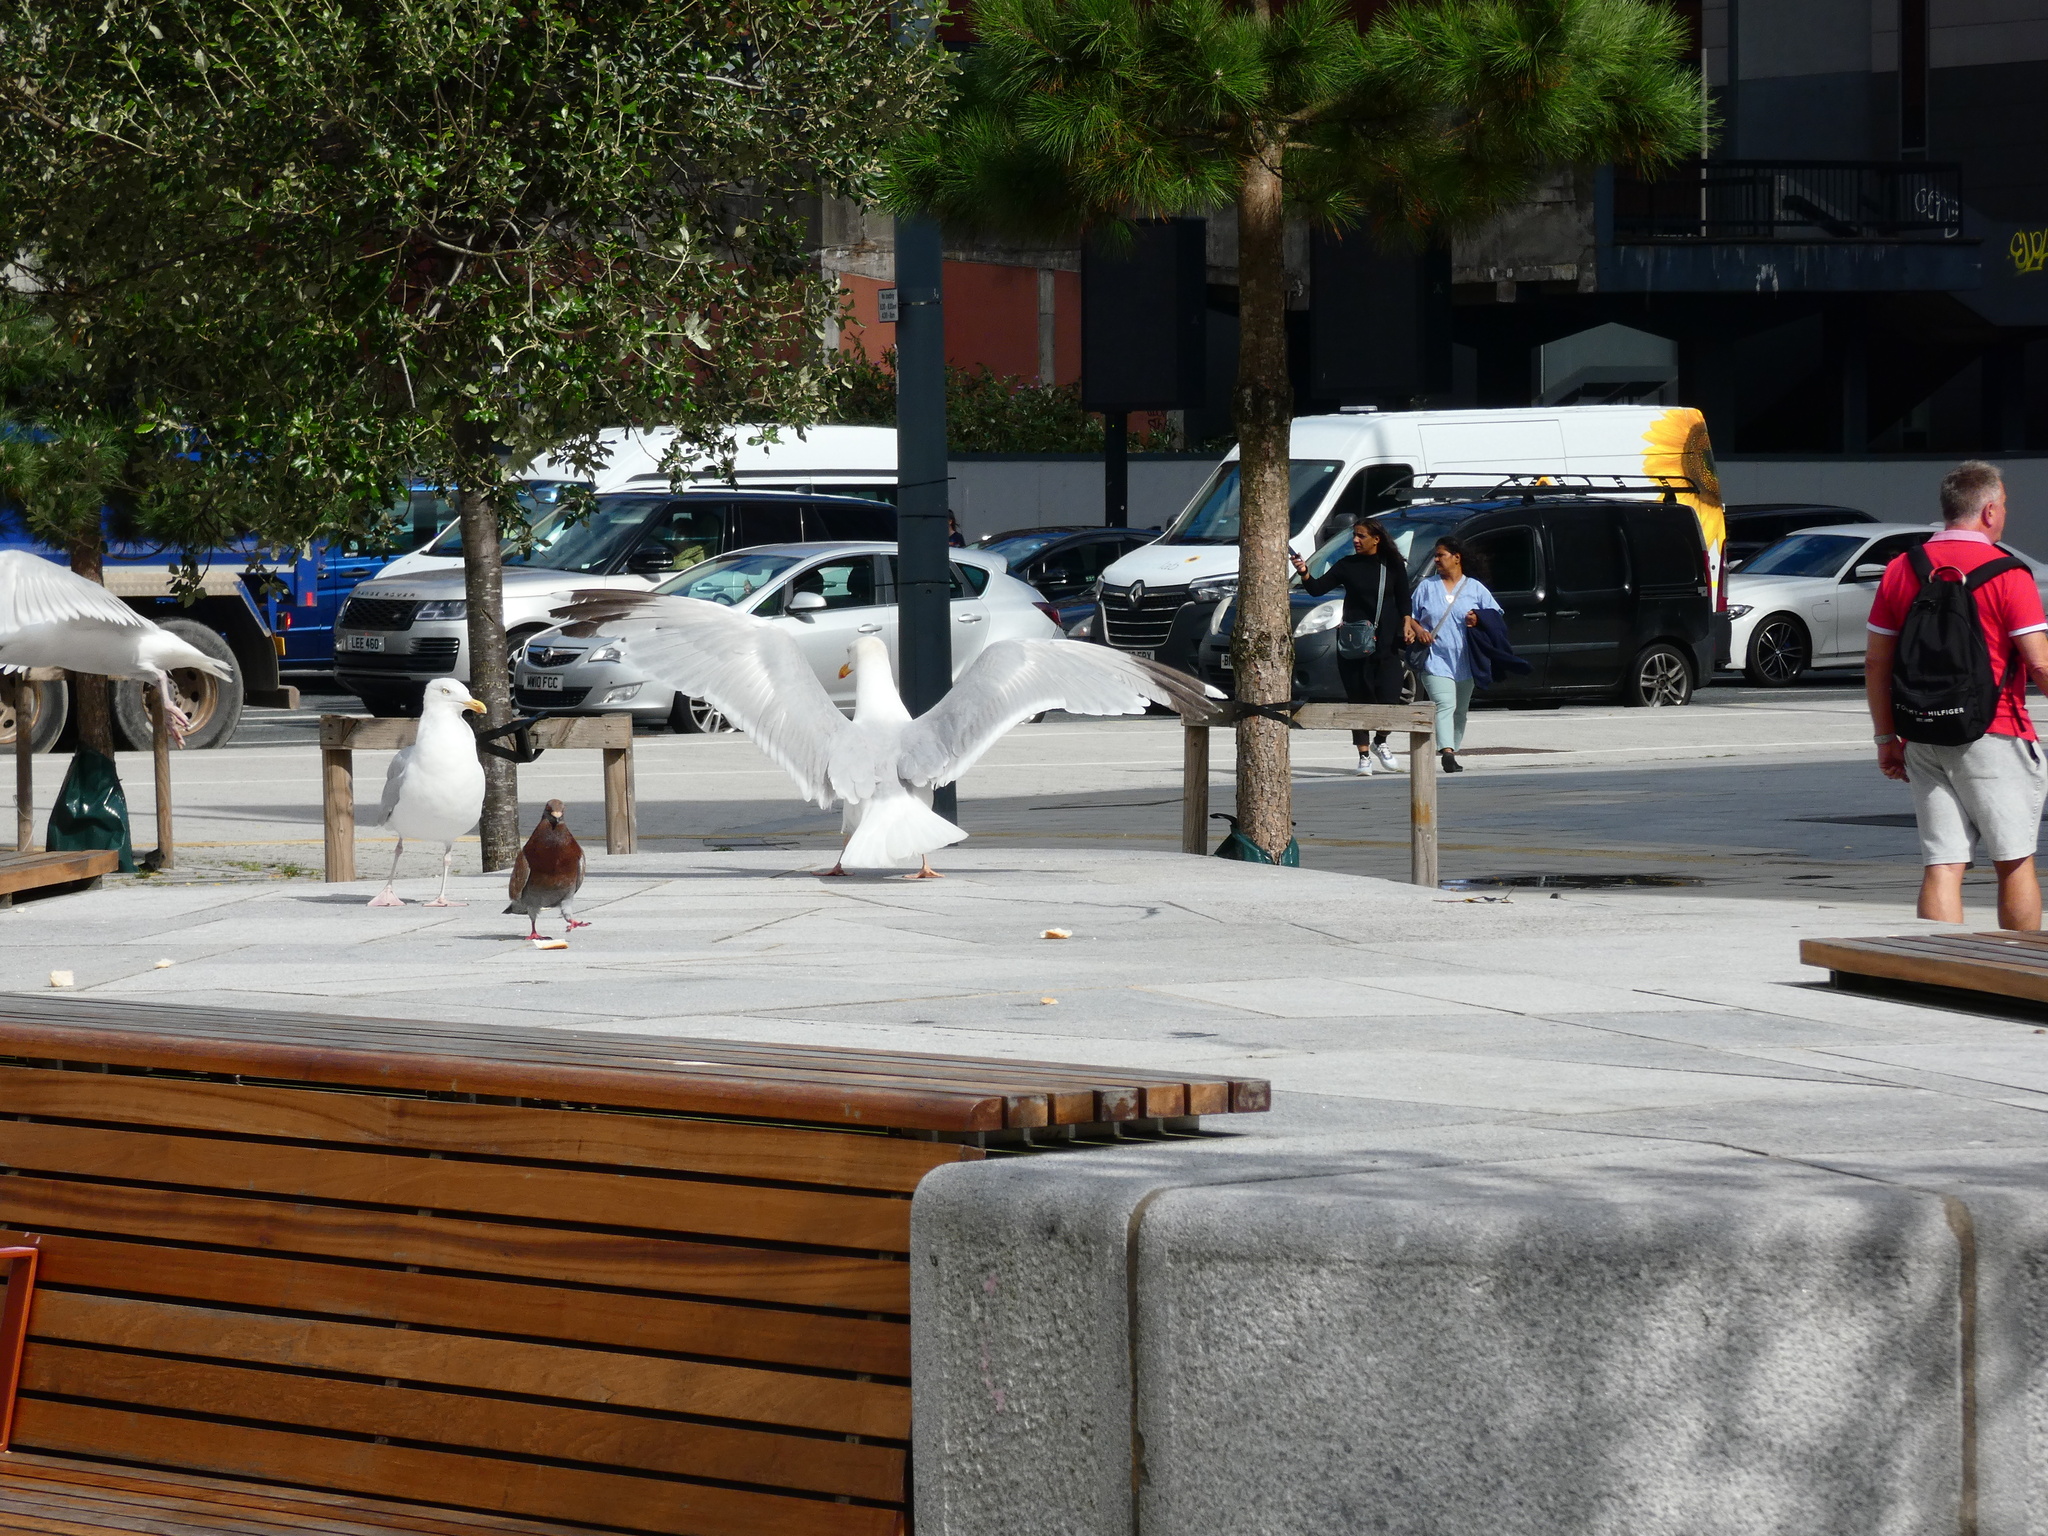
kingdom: Animalia
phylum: Chordata
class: Aves
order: Charadriiformes
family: Laridae
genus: Larus
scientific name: Larus argentatus
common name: Herring gull
